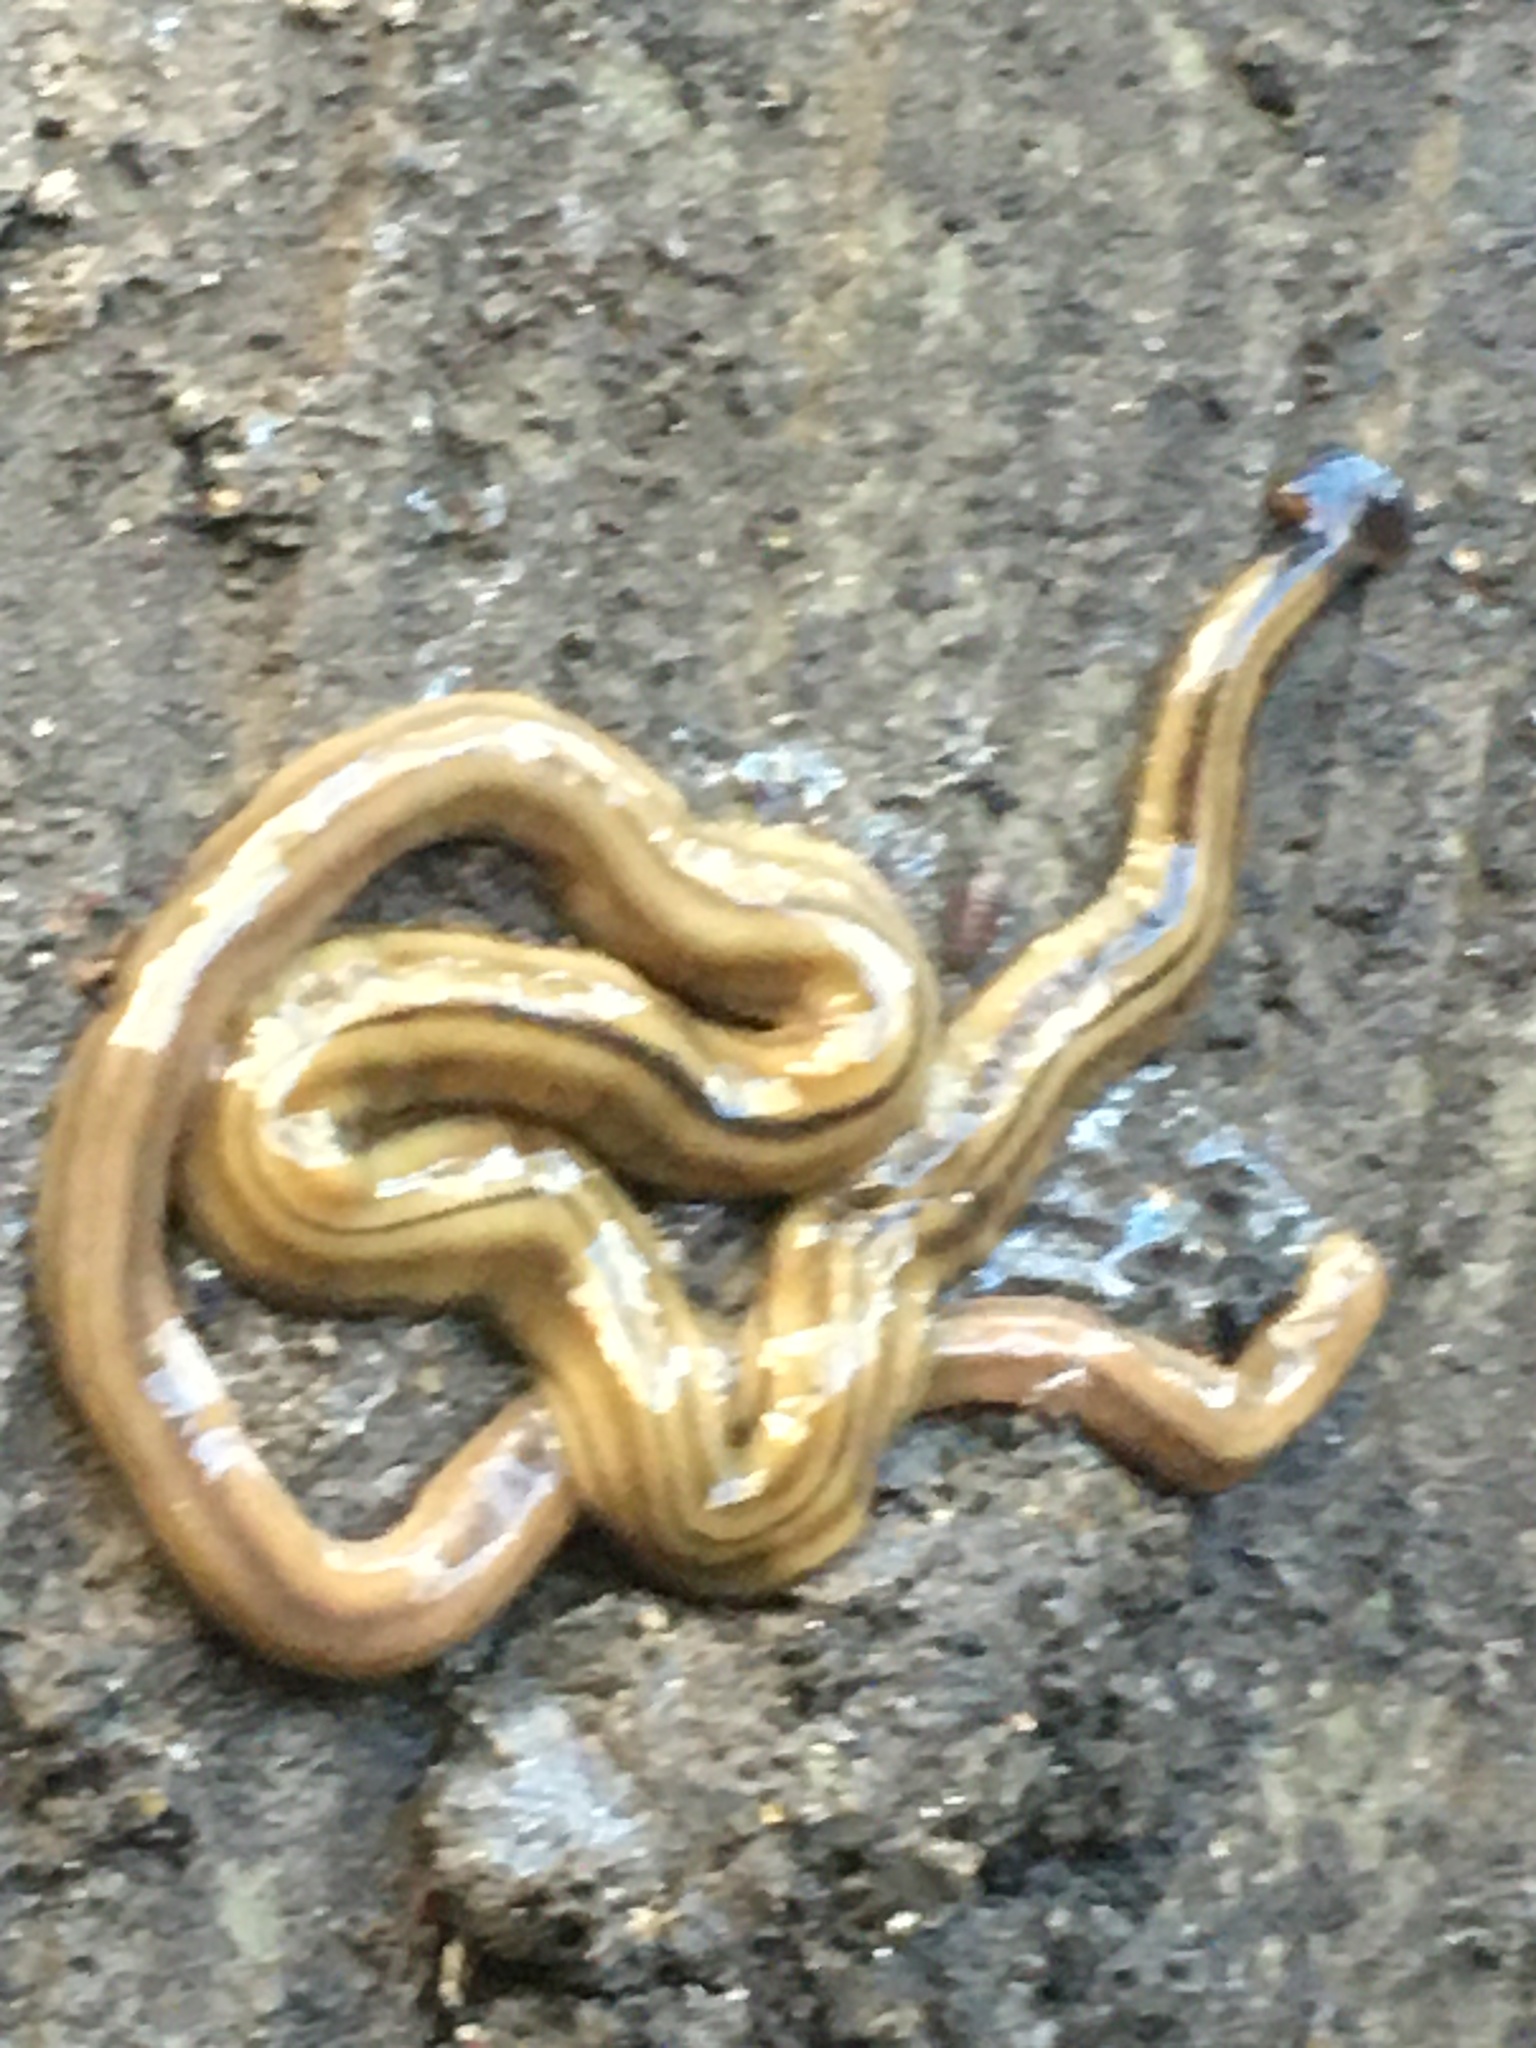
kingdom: Animalia
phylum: Platyhelminthes
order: Tricladida
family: Geoplanidae
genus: Bipalium
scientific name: Bipalium kewense
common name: Hammerhead flatworm
